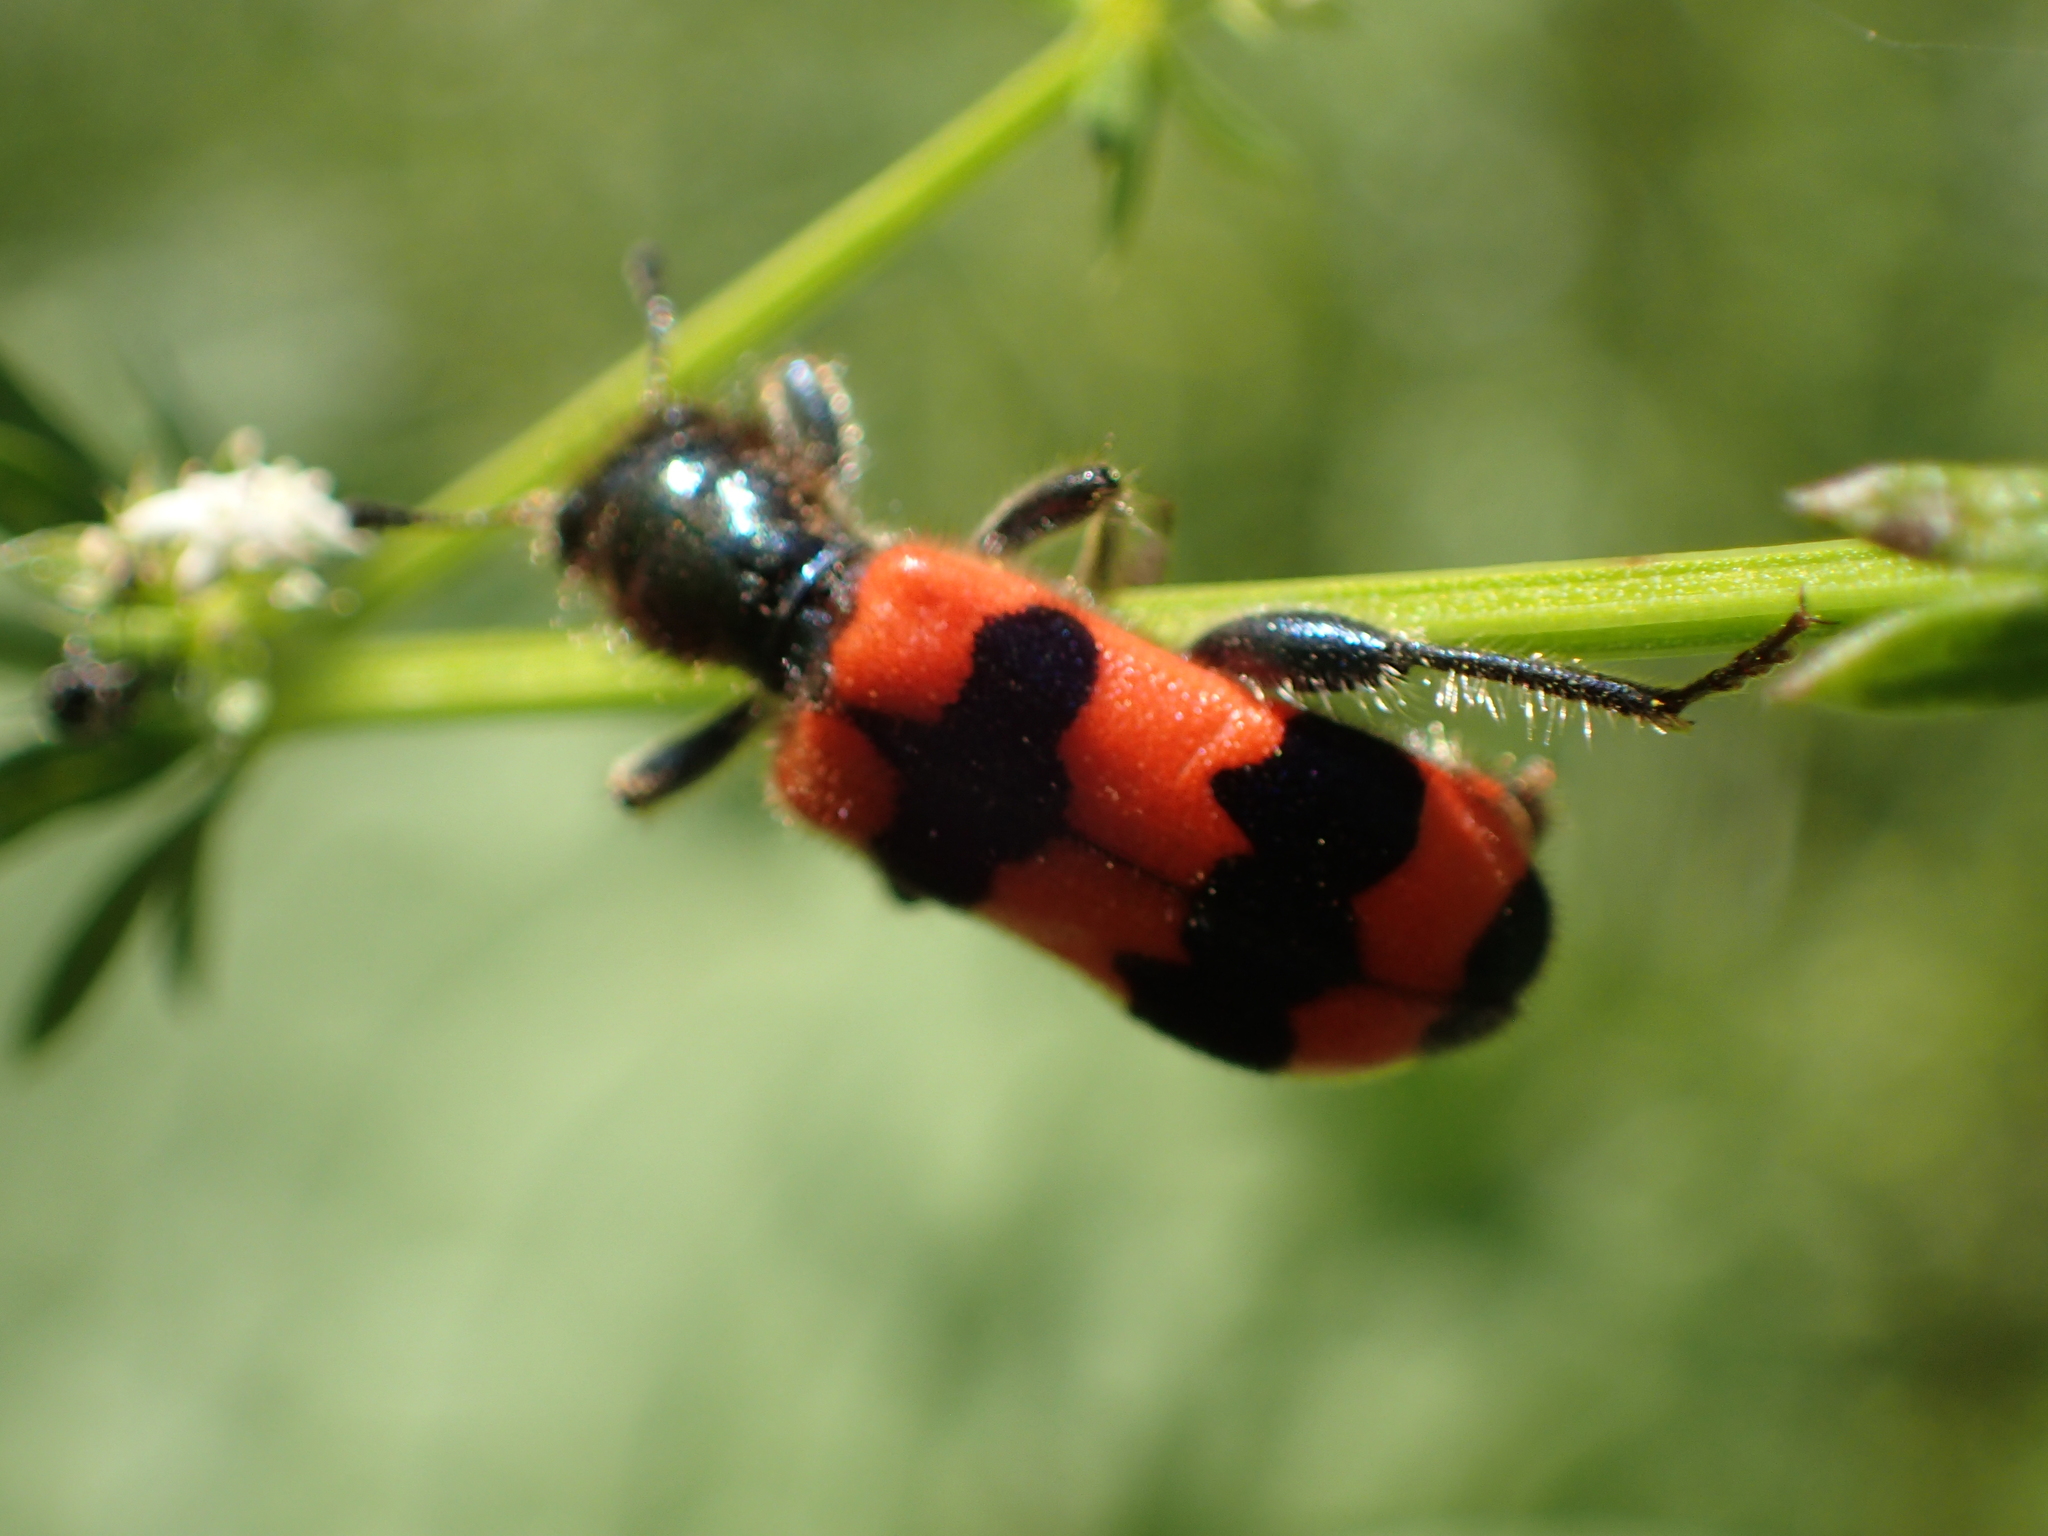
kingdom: Animalia
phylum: Arthropoda
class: Insecta
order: Coleoptera
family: Cleridae
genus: Trichodes
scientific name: Trichodes apiarius
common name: Bee-eating beetle
